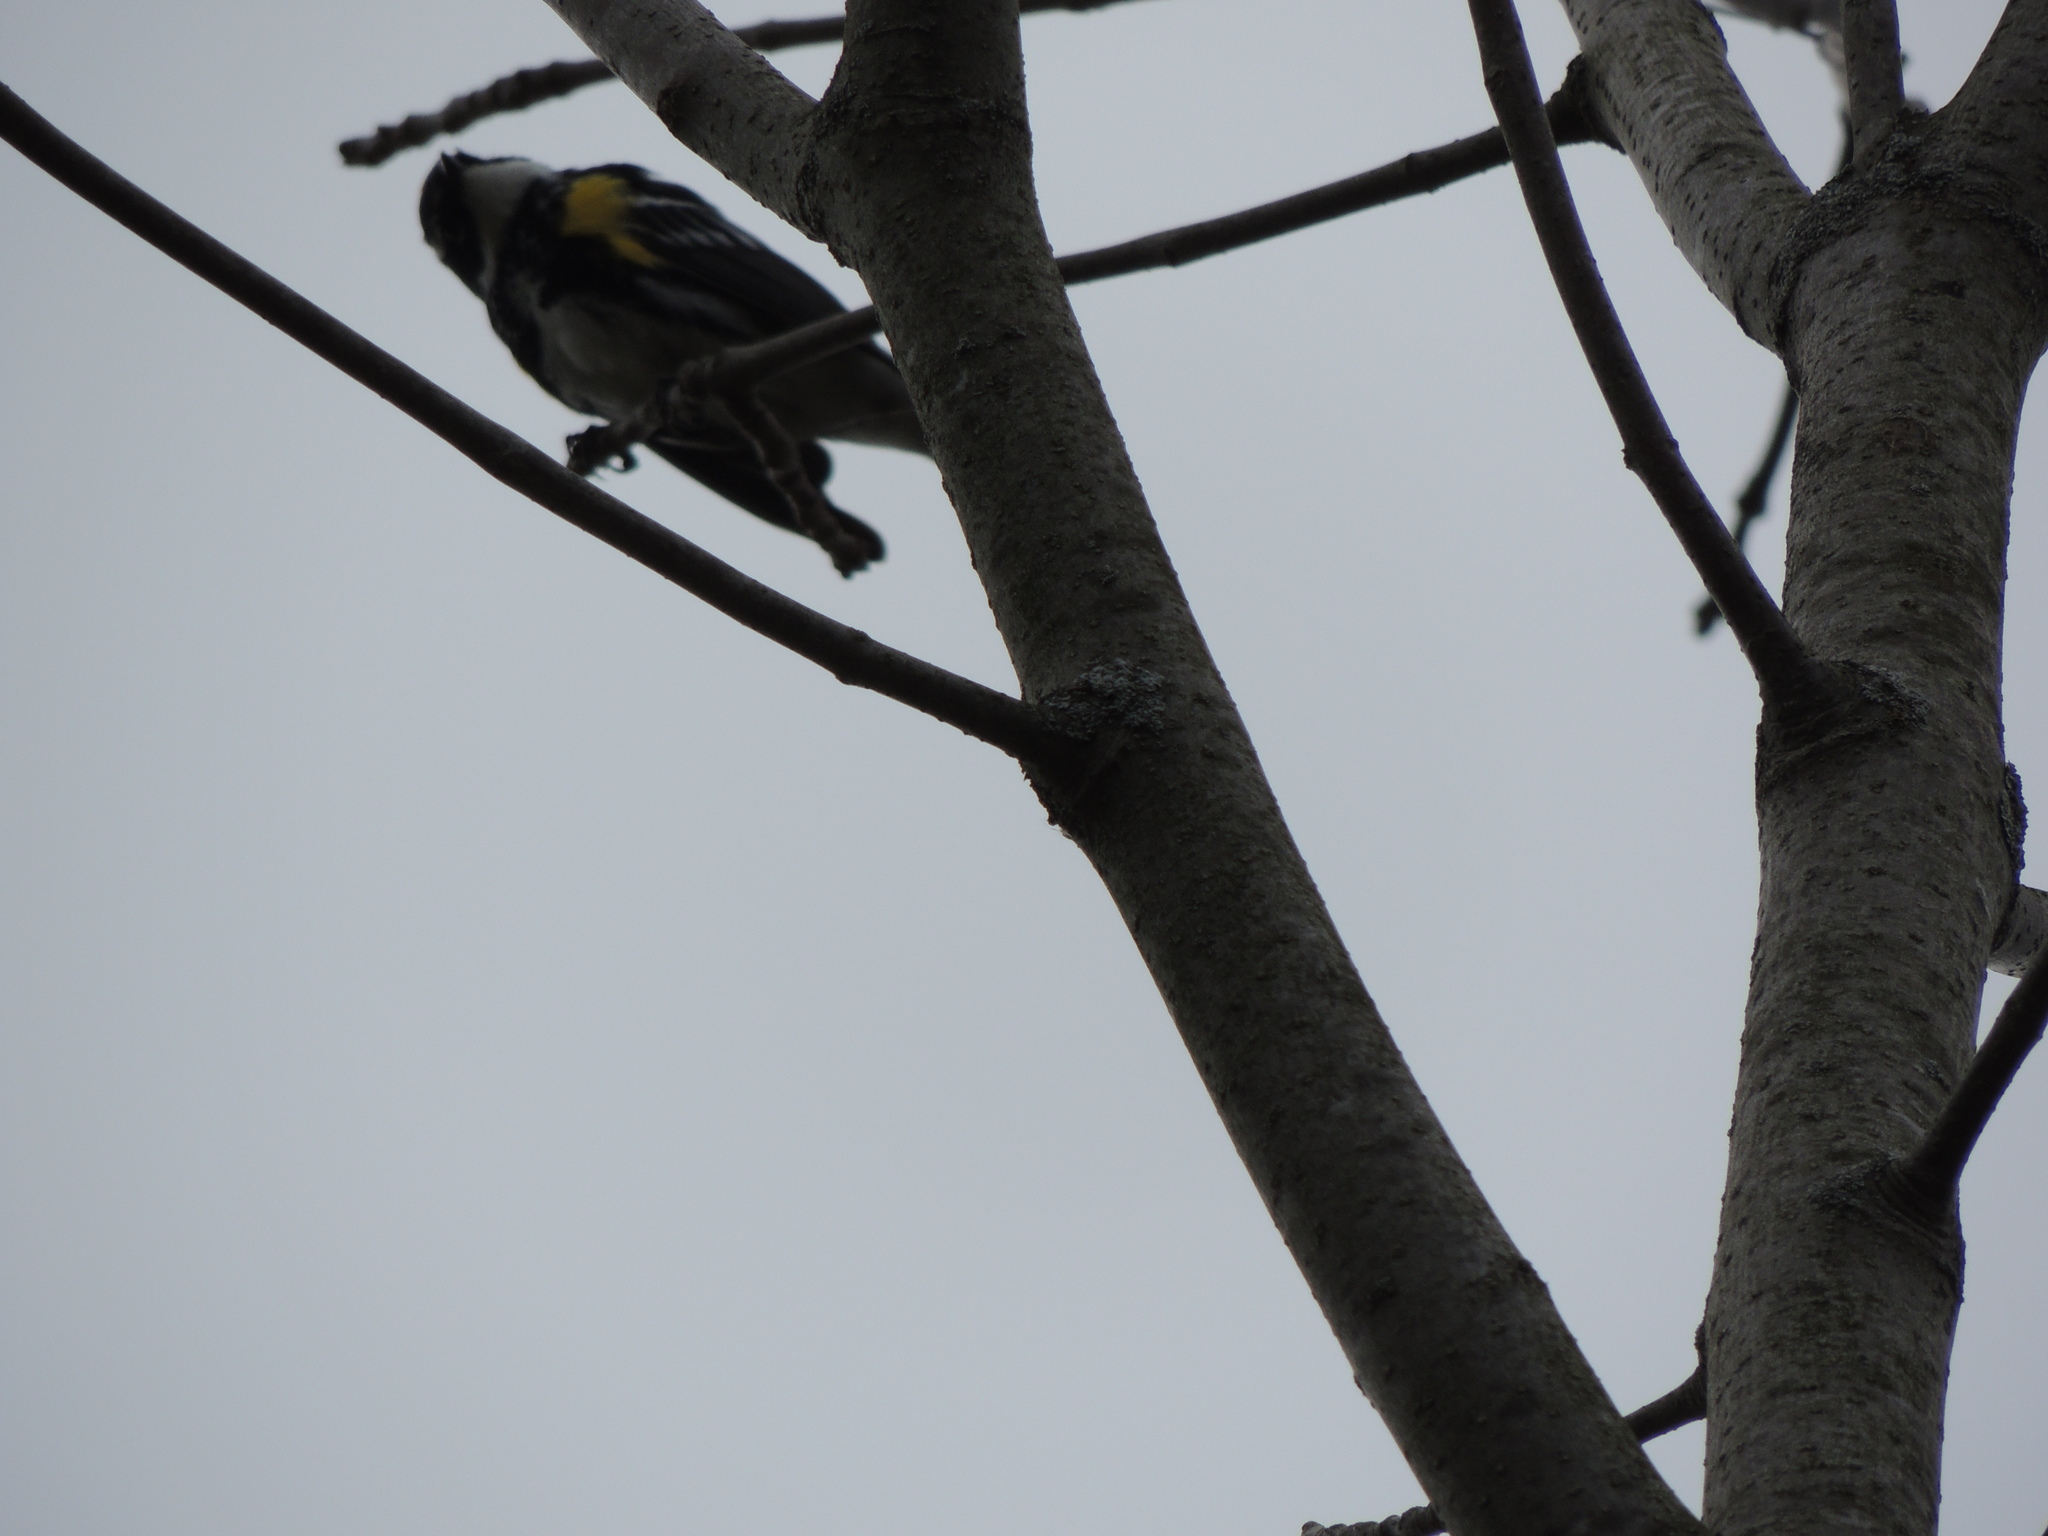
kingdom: Animalia
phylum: Chordata
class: Aves
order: Passeriformes
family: Parulidae
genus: Setophaga
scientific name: Setophaga coronata
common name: Myrtle warbler
